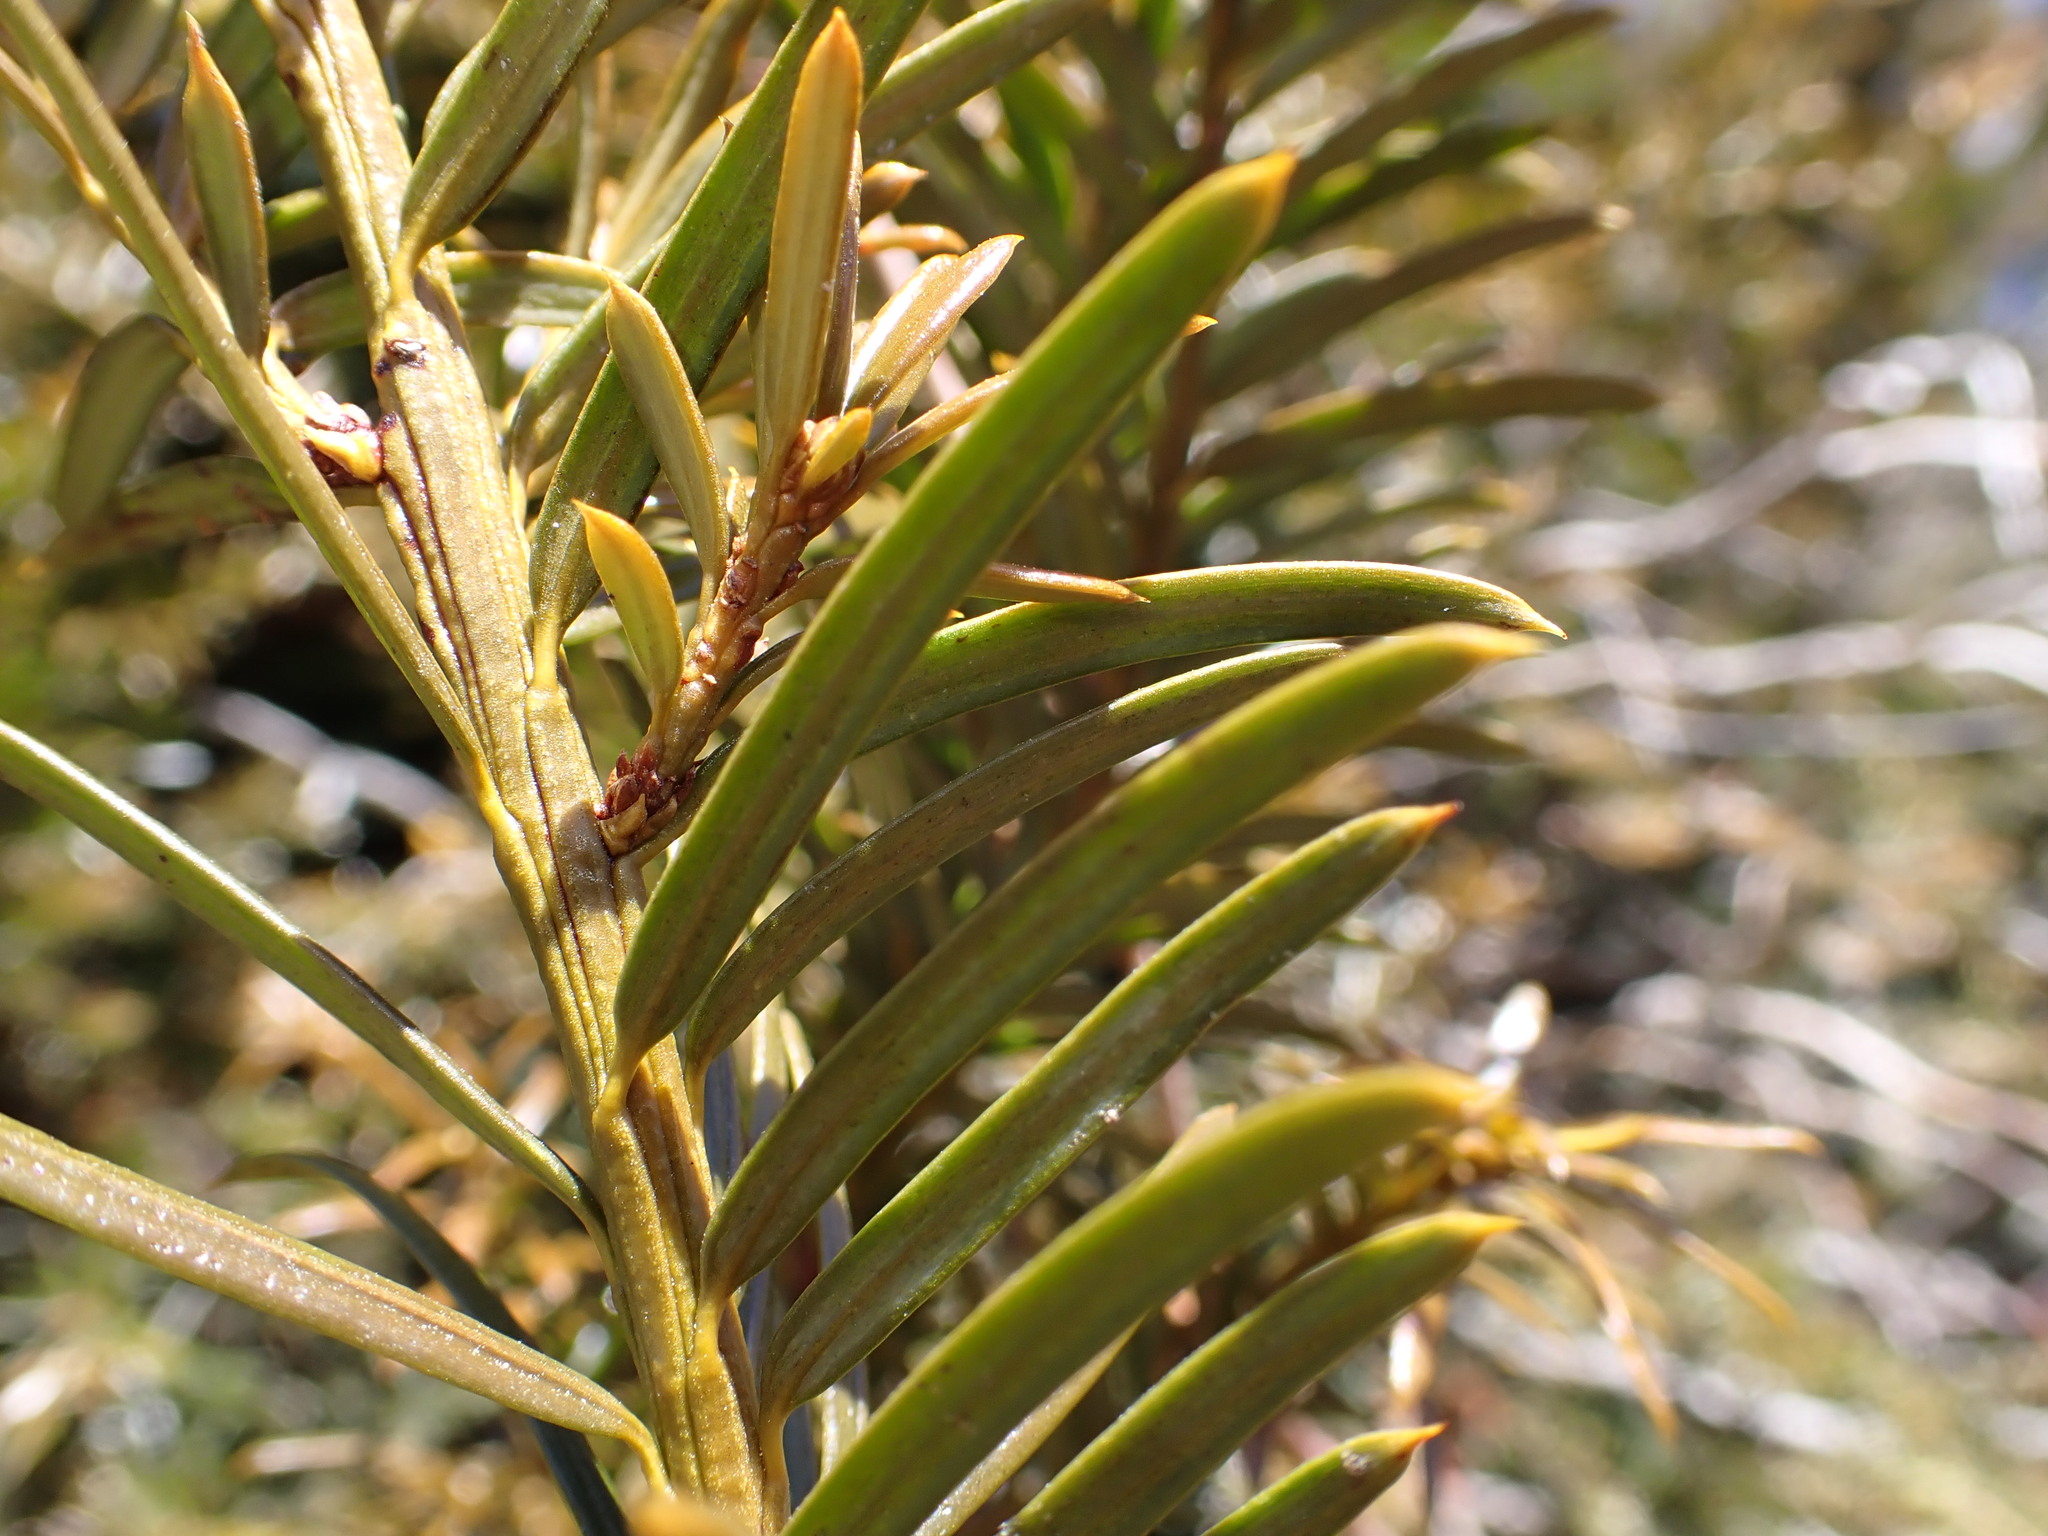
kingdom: Plantae
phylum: Tracheophyta
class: Pinopsida
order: Pinales
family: Taxaceae
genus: Taxus
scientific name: Taxus brevifolia
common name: Pacific yew
